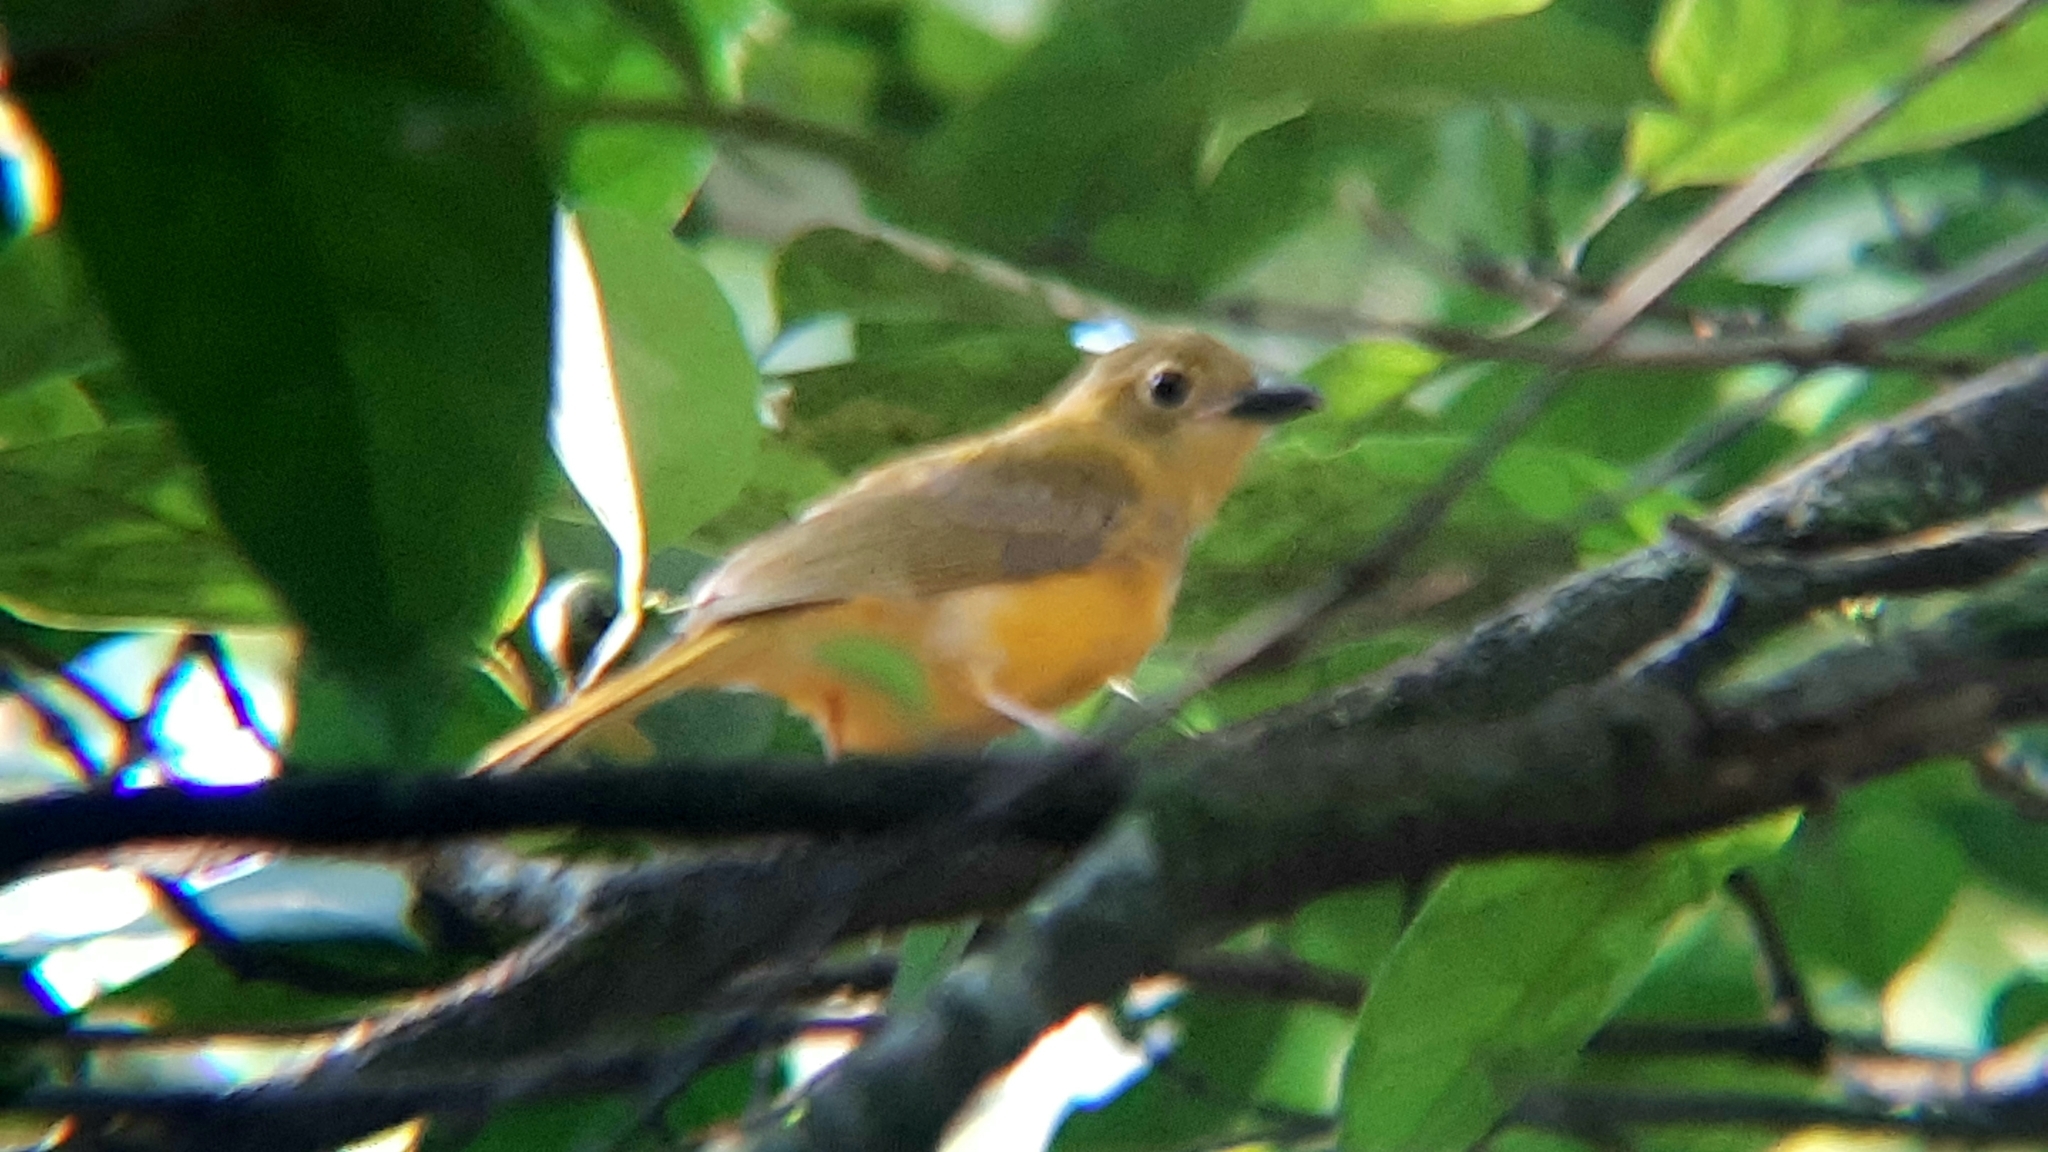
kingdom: Animalia
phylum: Chordata
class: Aves
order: Passeriformes
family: Thraupidae
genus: Eucometis
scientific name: Eucometis penicillata
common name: Grey-headed tanager
